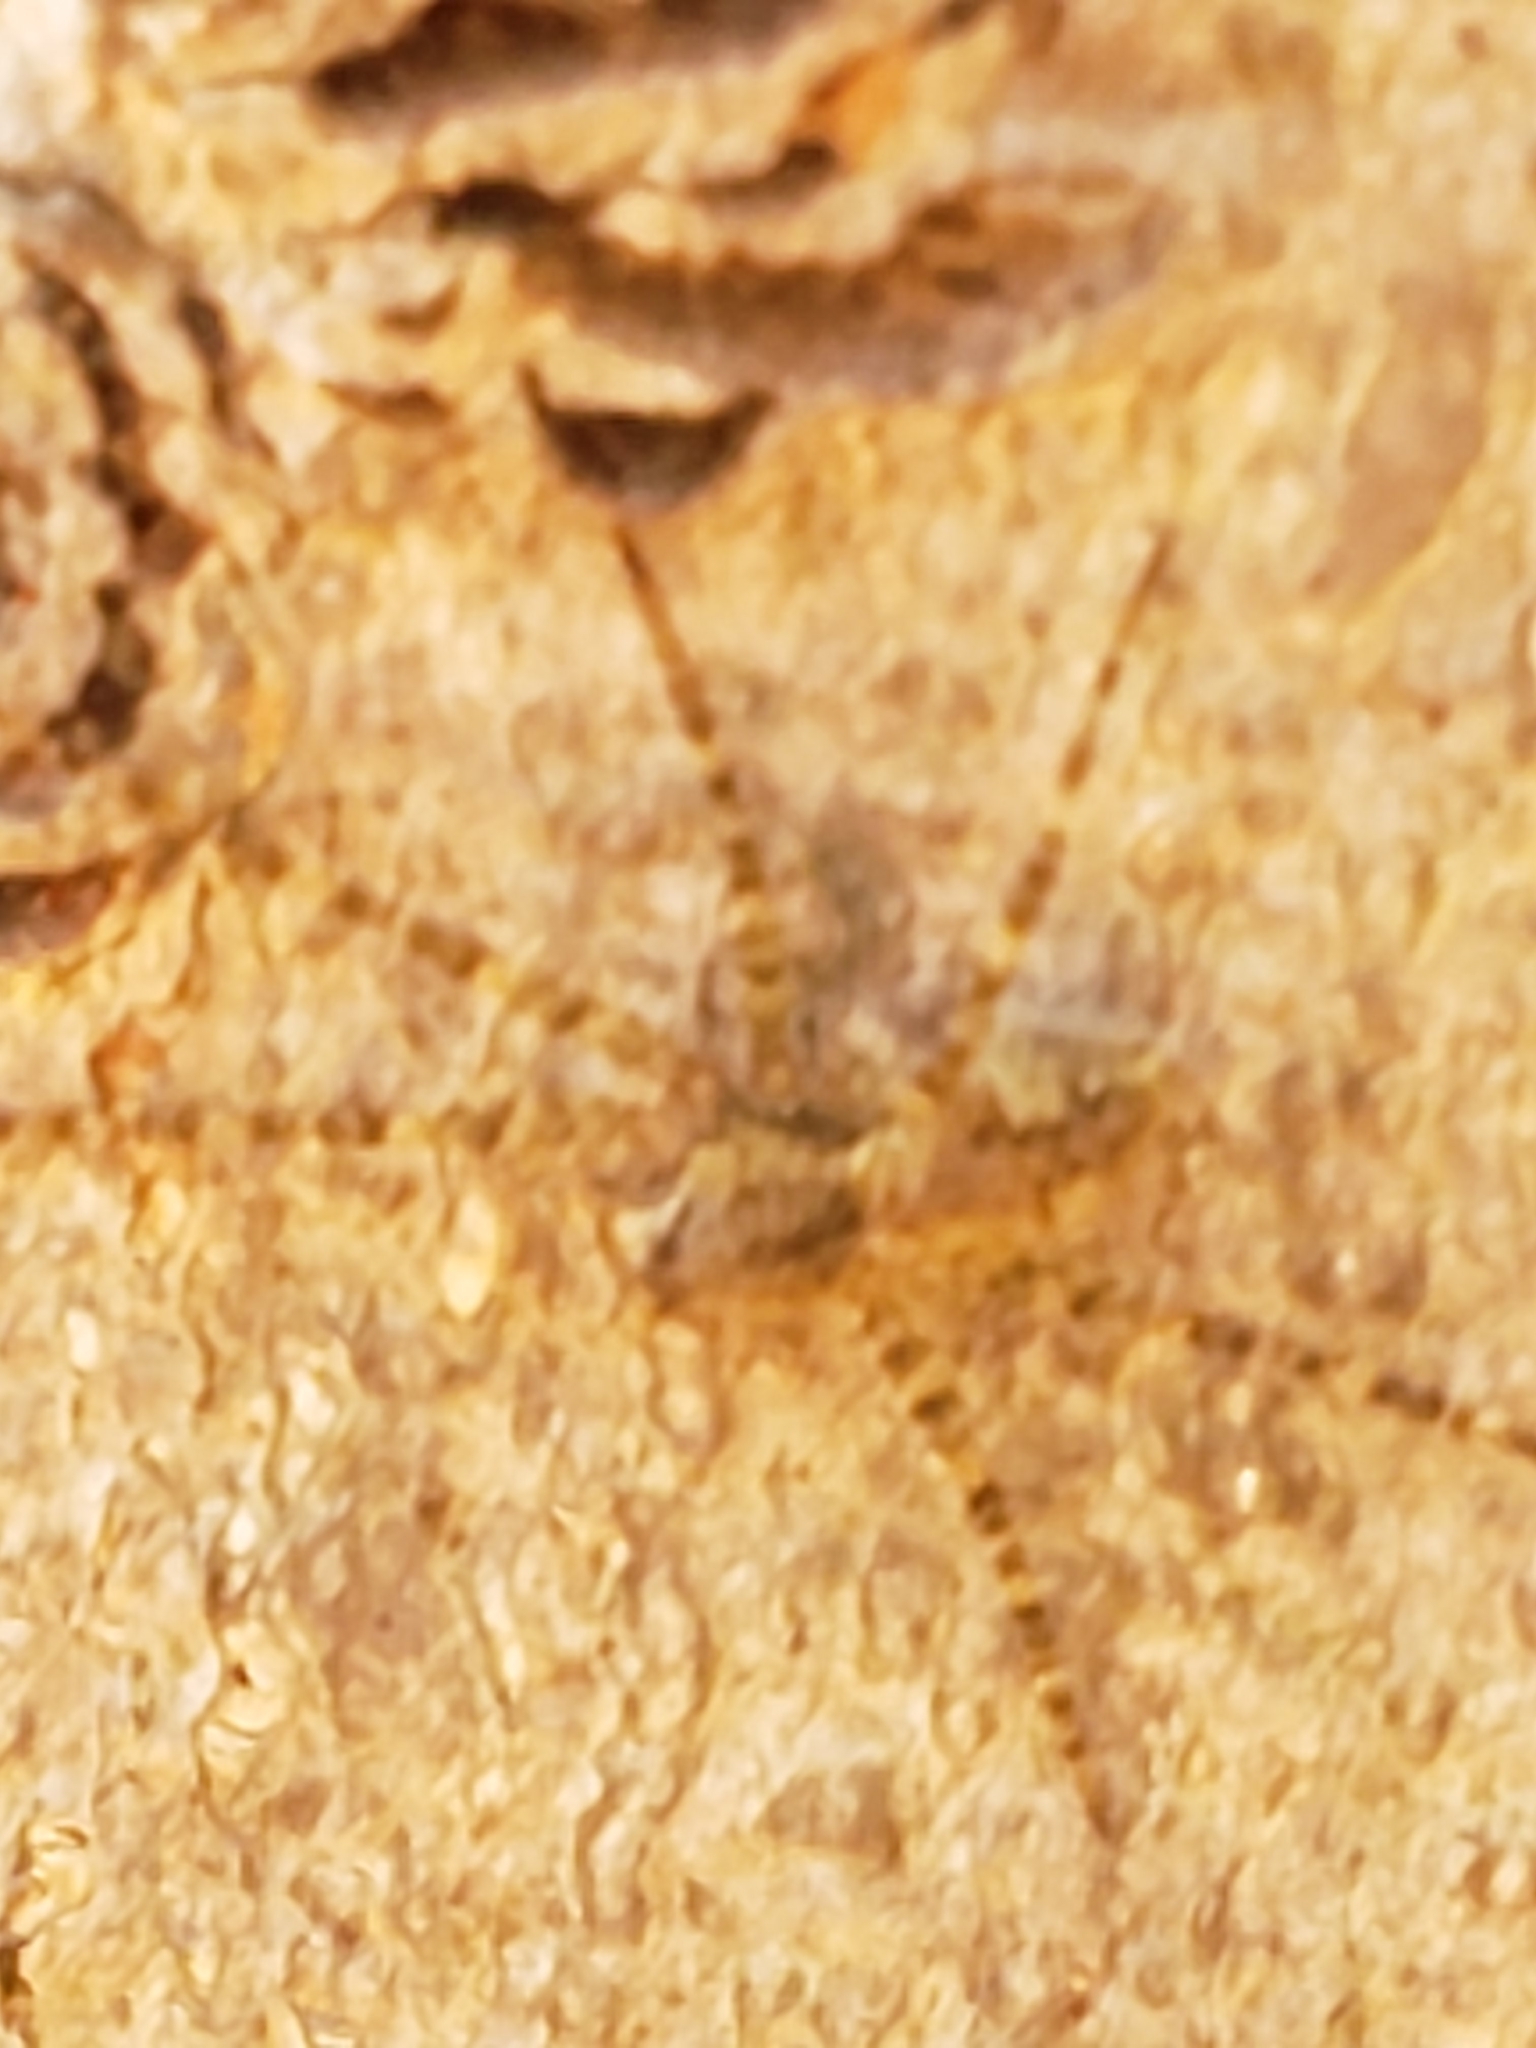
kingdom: Animalia
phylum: Arthropoda
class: Arachnida
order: Araneae
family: Pisauridae
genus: Dolomedes
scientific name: Dolomedes albineus
